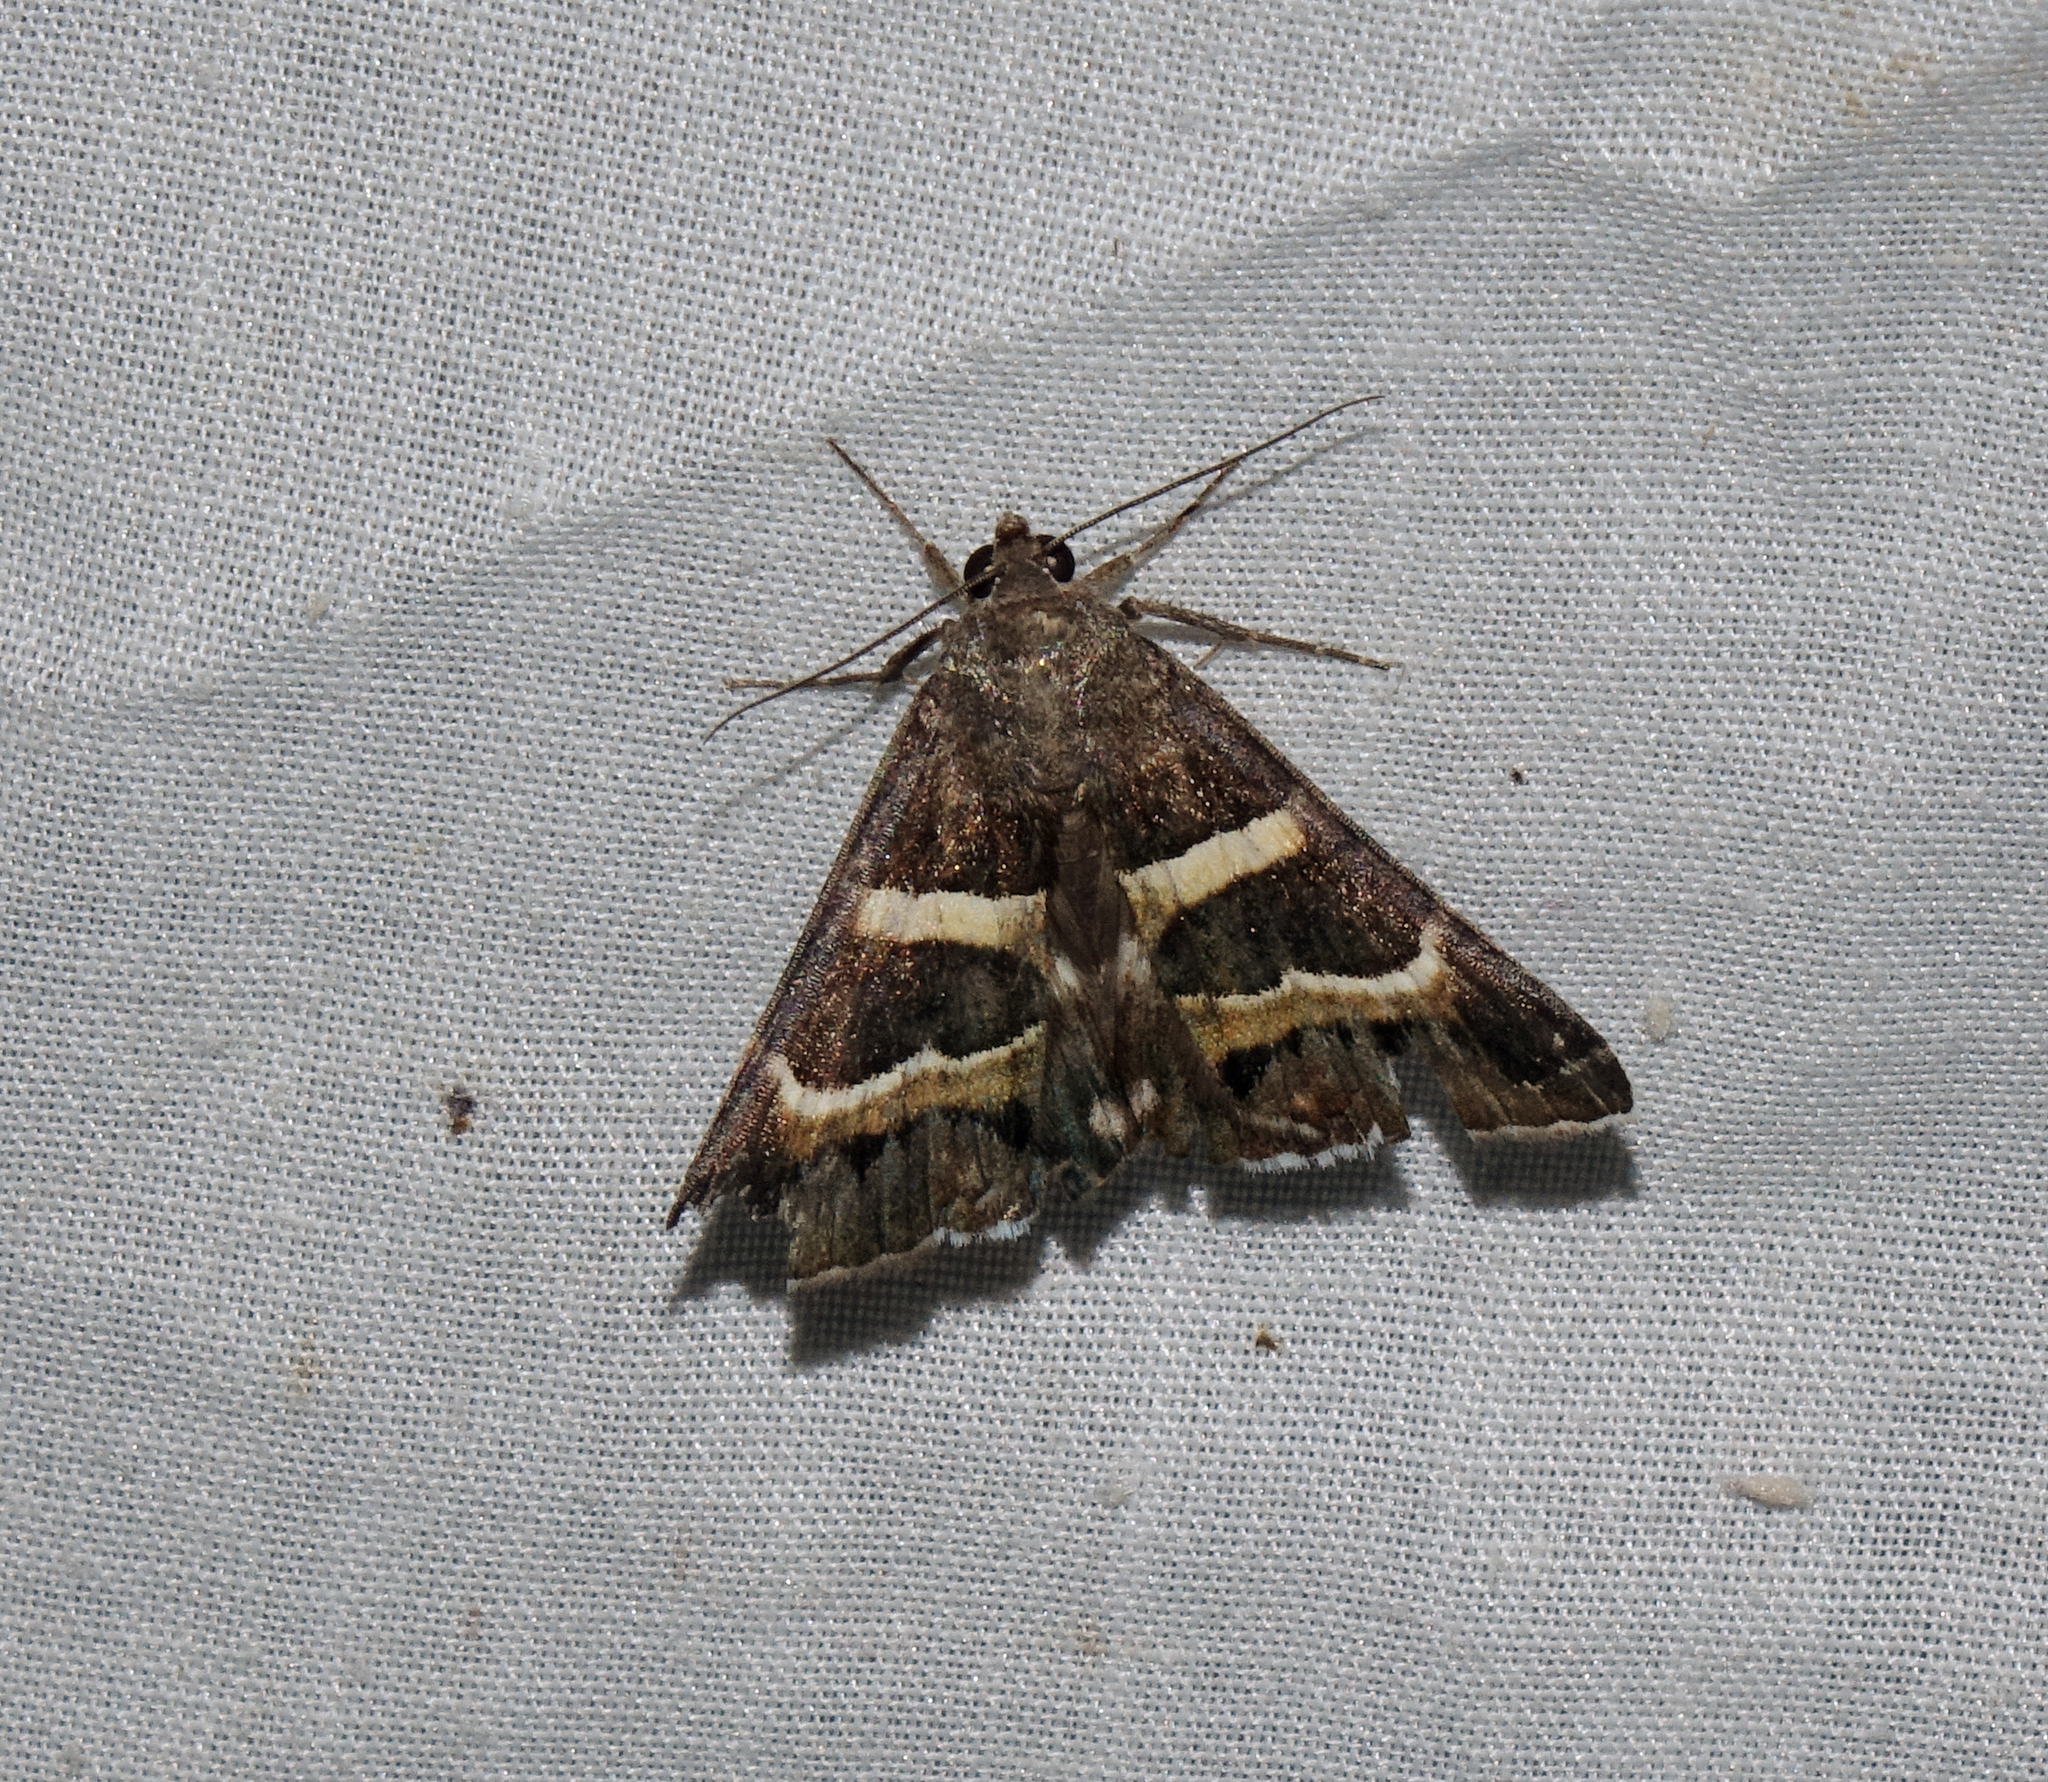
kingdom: Animalia
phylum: Arthropoda
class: Insecta
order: Lepidoptera
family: Erebidae
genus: Grammodes
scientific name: Grammodes stolida
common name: Geometrician
